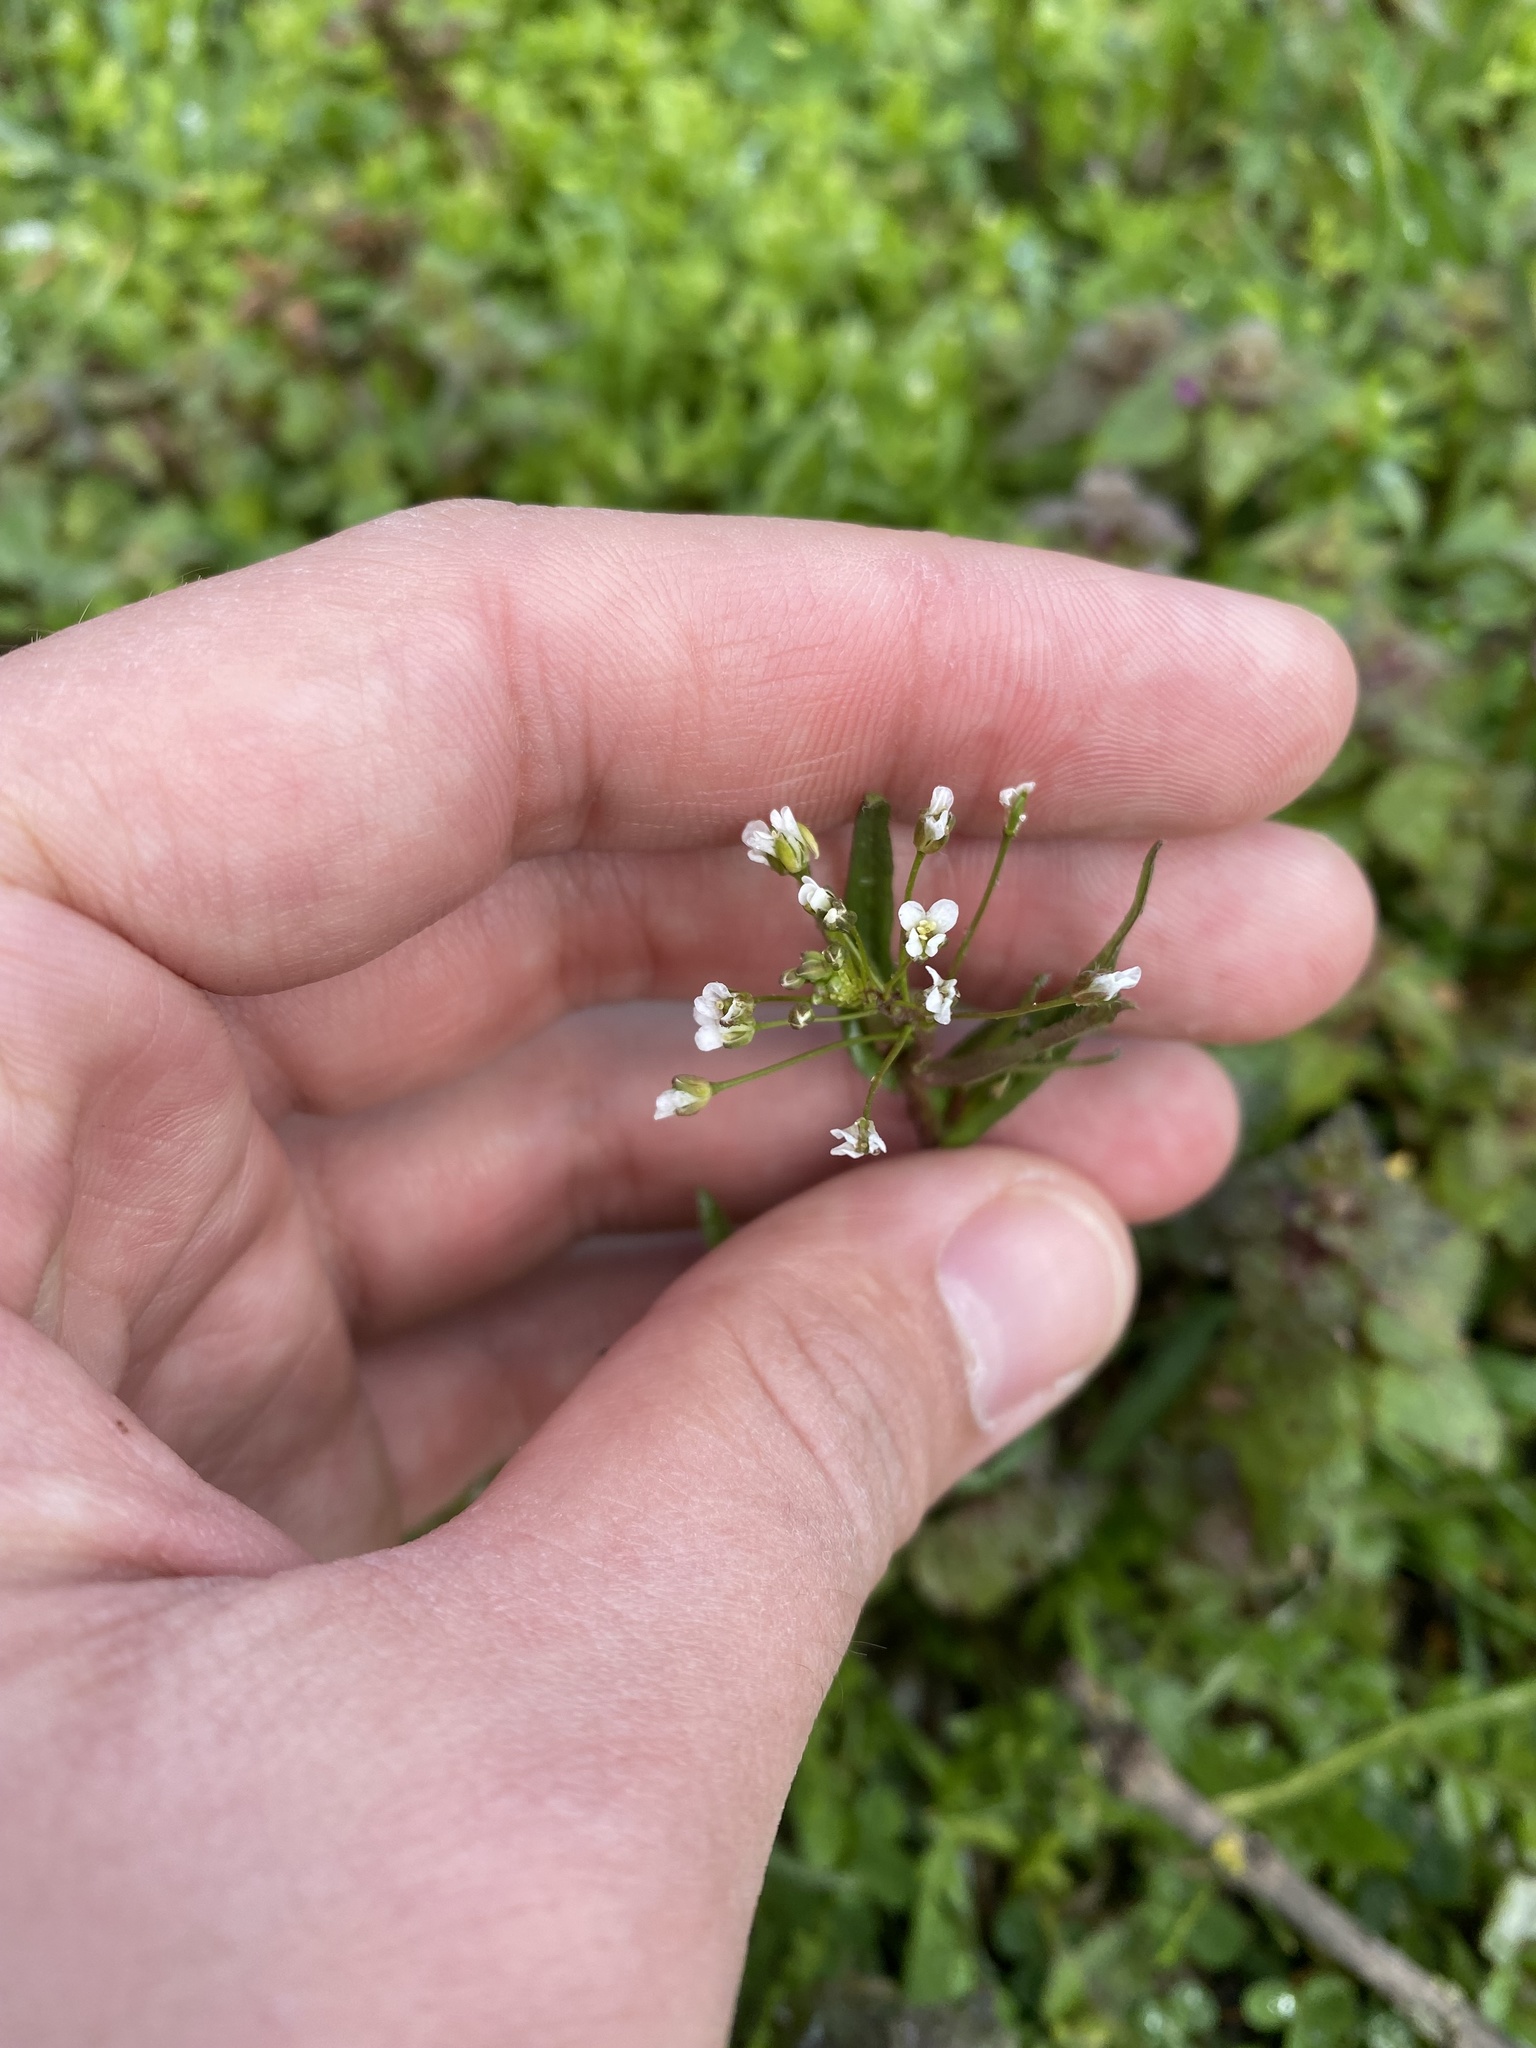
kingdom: Plantae
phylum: Tracheophyta
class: Magnoliopsida
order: Brassicales
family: Brassicaceae
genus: Capsella
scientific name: Capsella bursa-pastoris
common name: Shepherd's purse
